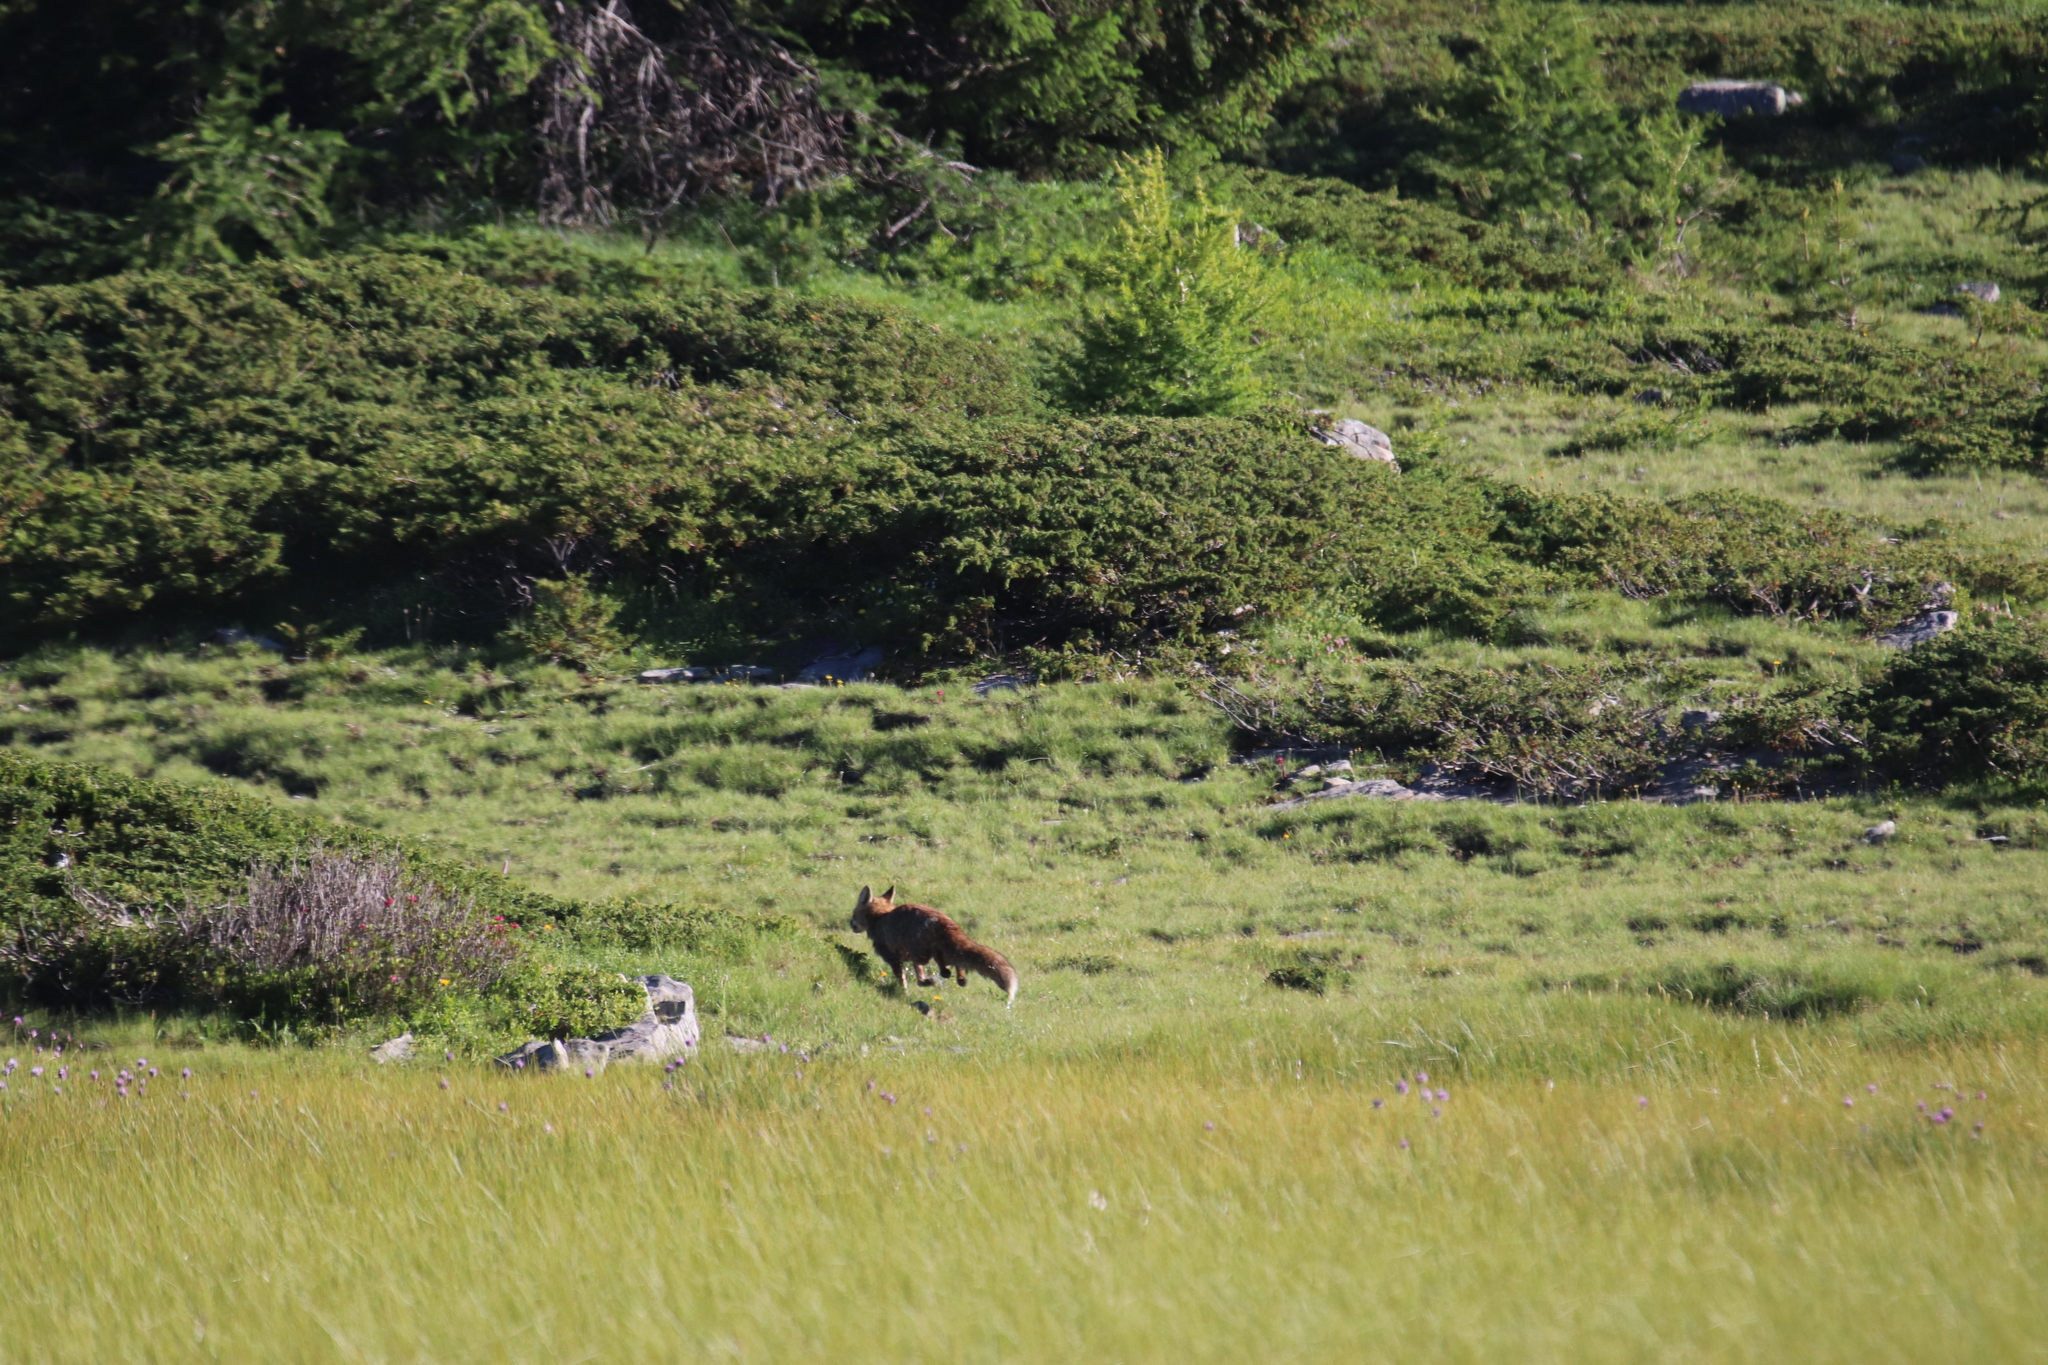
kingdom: Animalia
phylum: Chordata
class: Mammalia
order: Carnivora
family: Canidae
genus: Vulpes
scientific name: Vulpes vulpes
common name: Red fox
